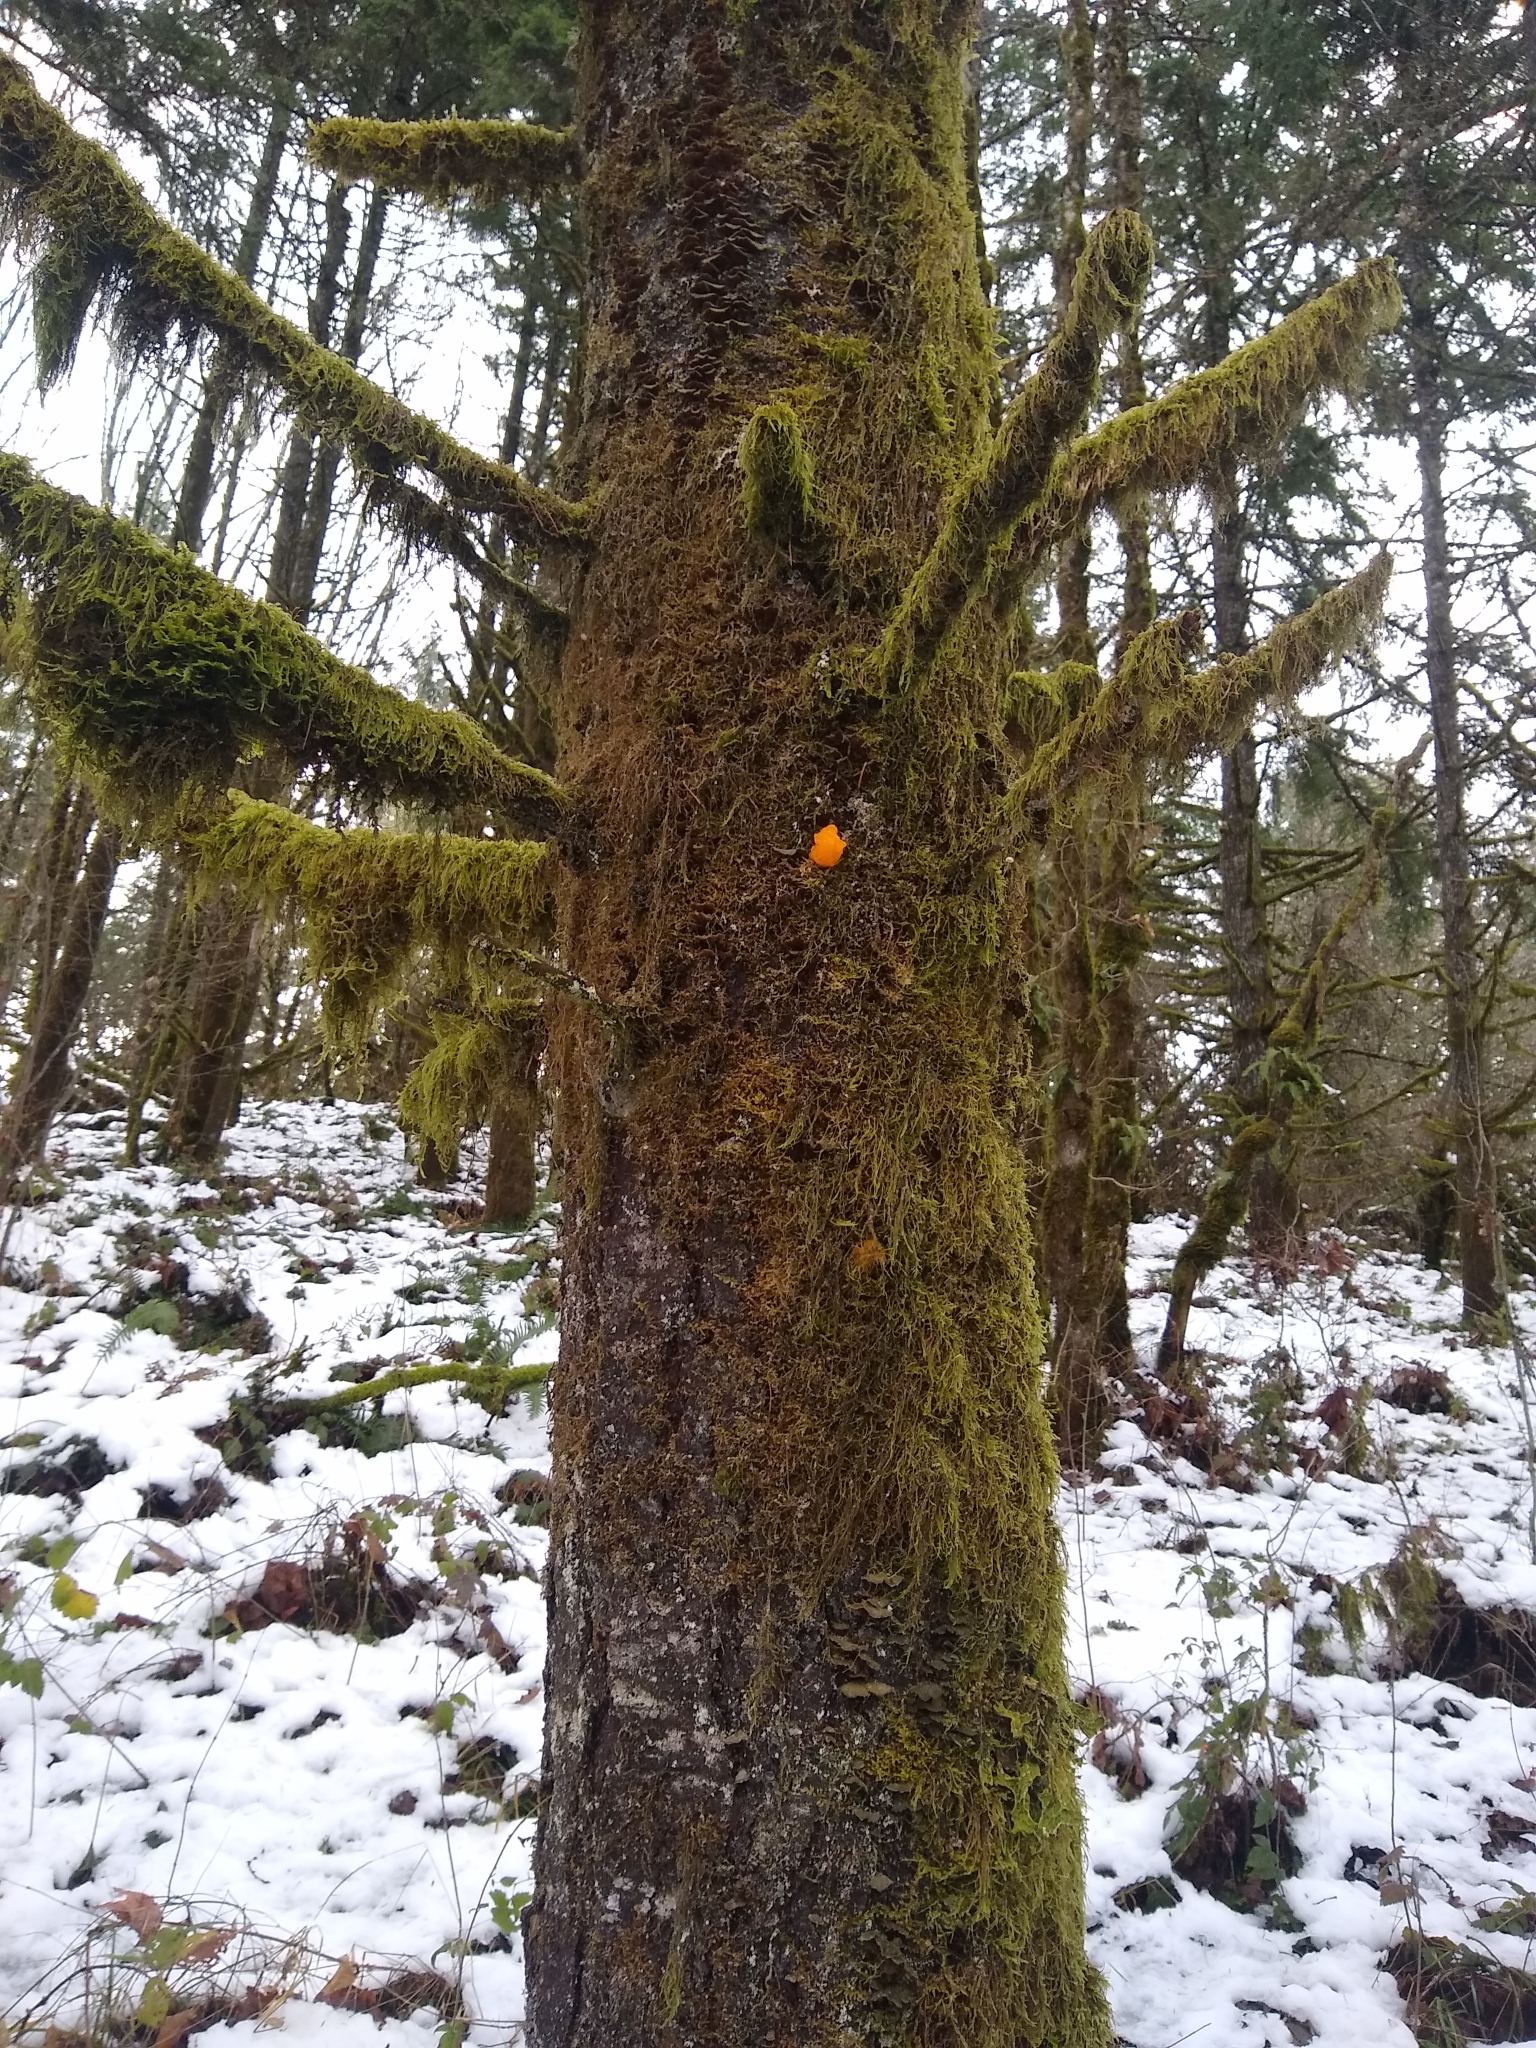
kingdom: Fungi
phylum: Basidiomycota
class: Dacrymycetes
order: Dacrymycetales
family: Dacrymycetaceae
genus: Dacrymyces
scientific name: Dacrymyces chrysospermus
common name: Orange jelly spot
